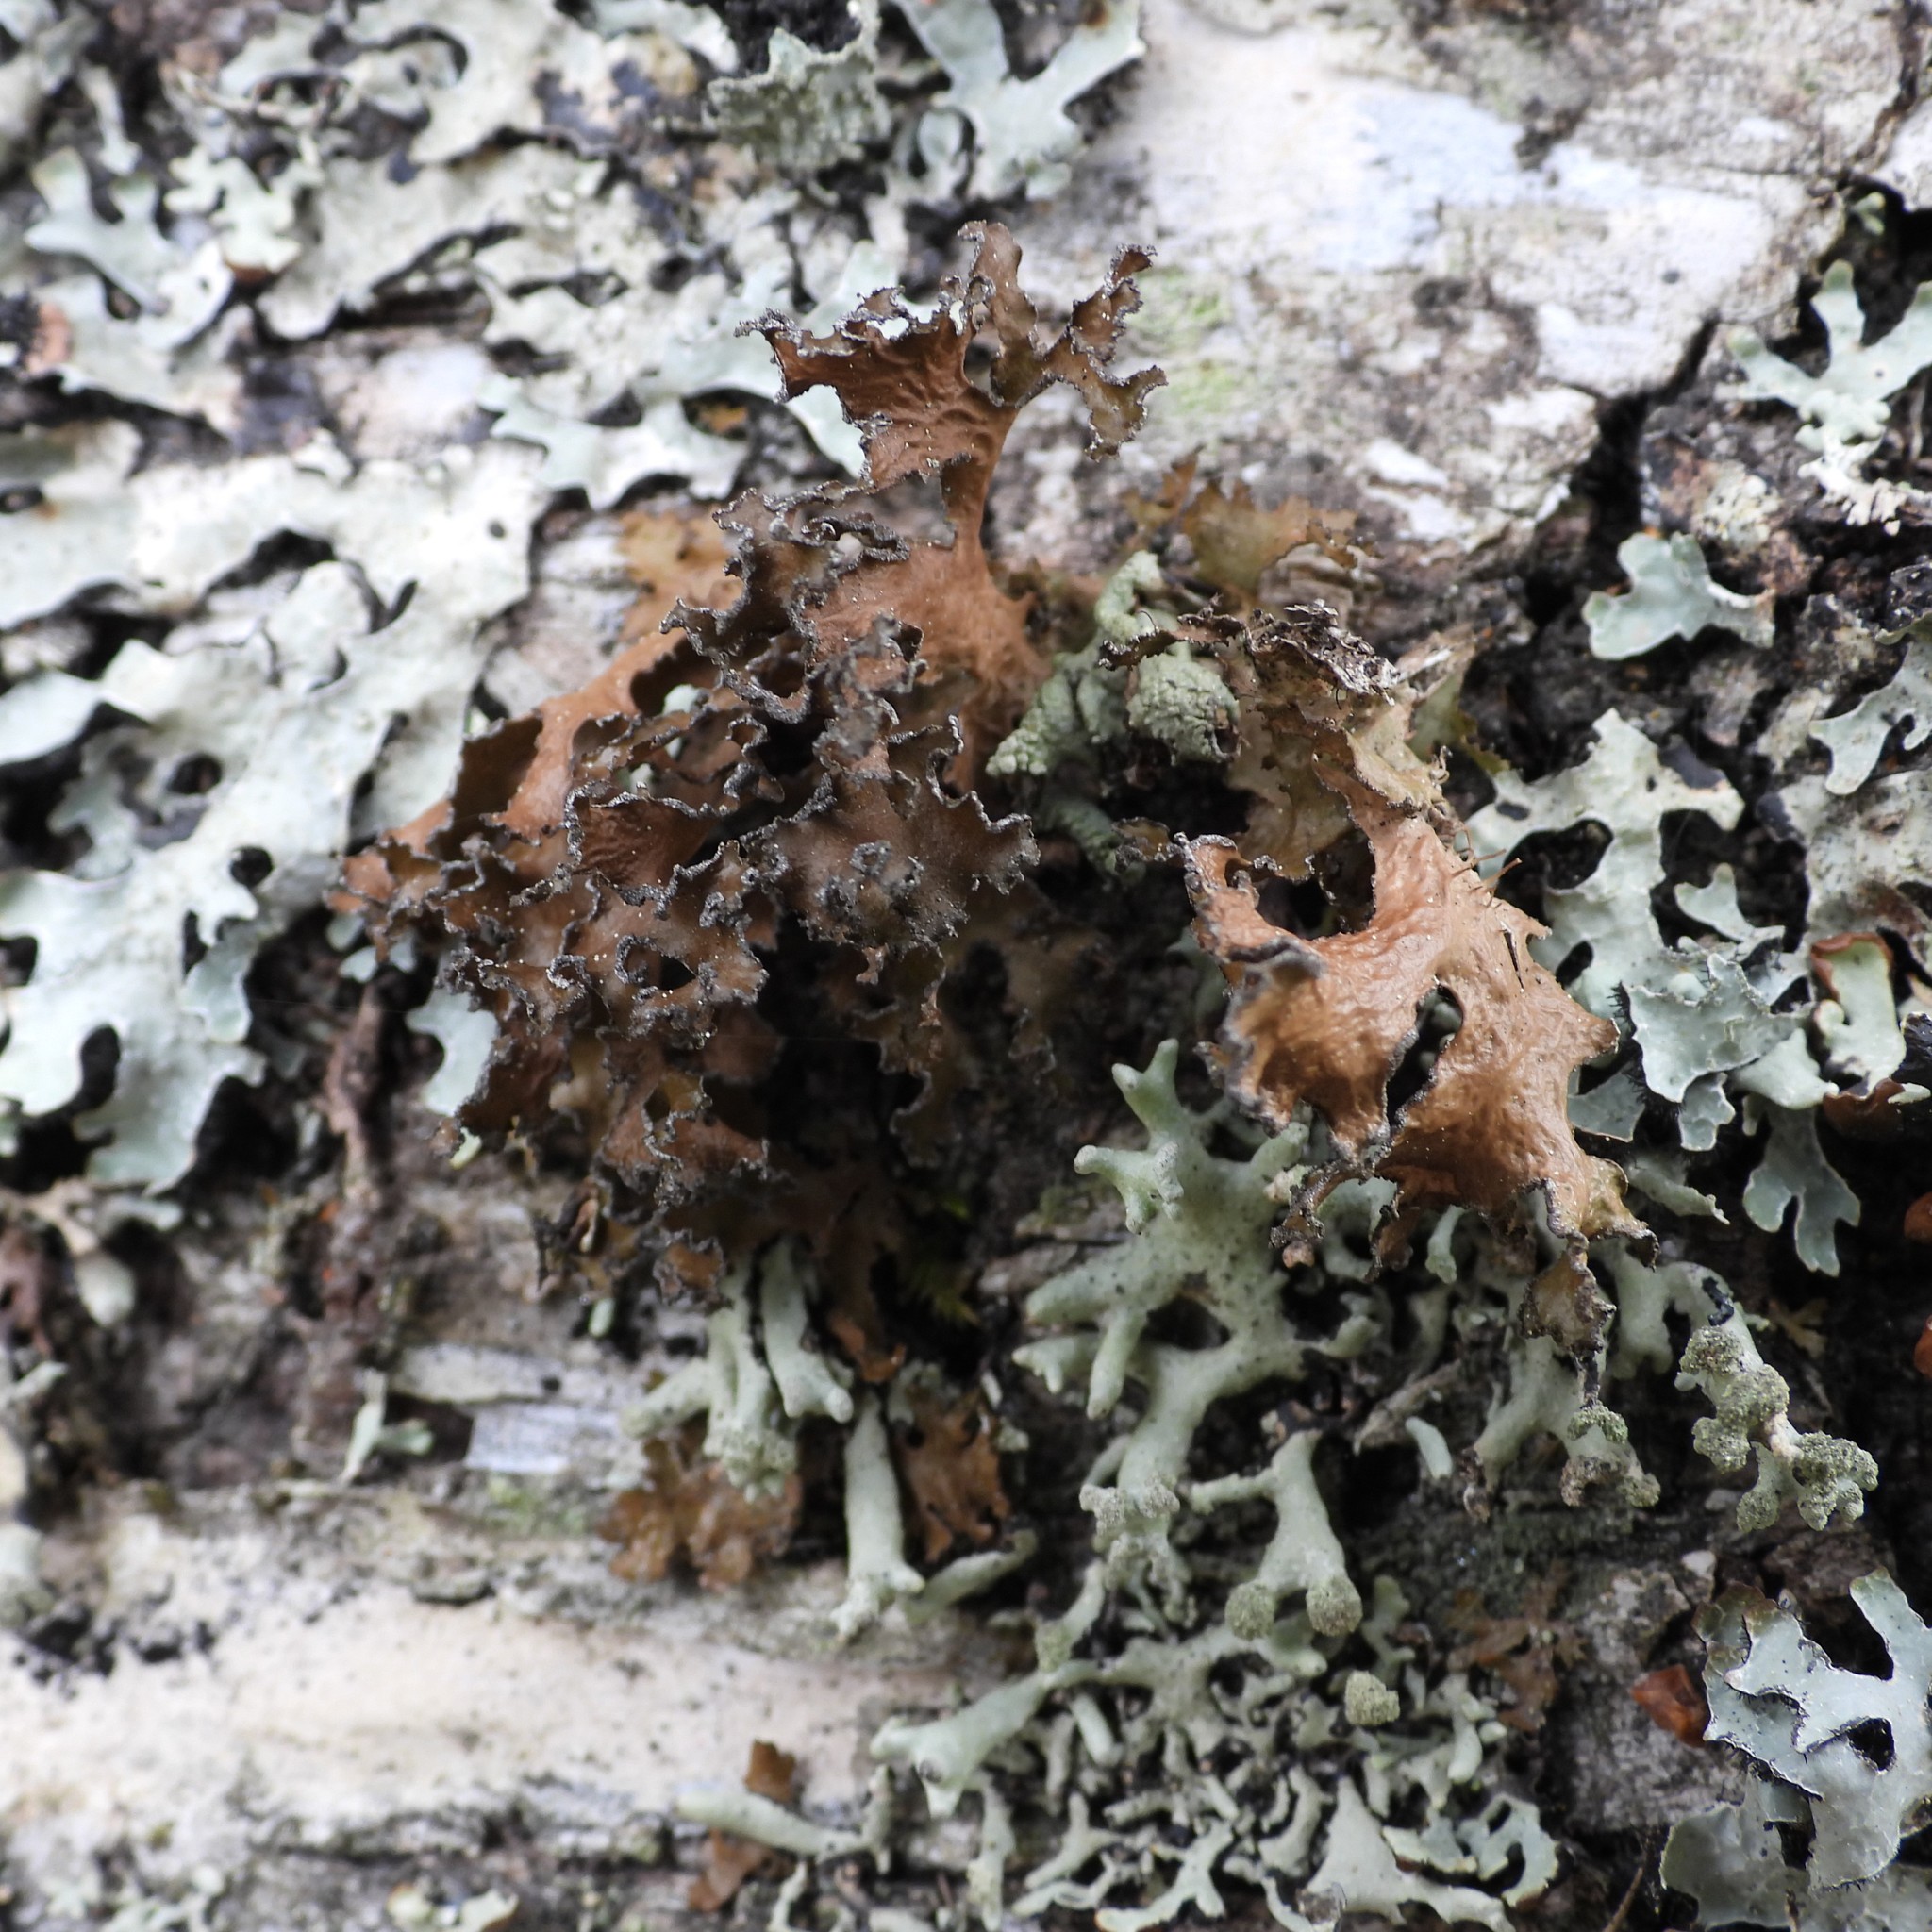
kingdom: Fungi
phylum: Ascomycota
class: Lecanoromycetes
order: Lecanorales
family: Parmeliaceae
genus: Nephromopsis
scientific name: Nephromopsis chlorophylla
